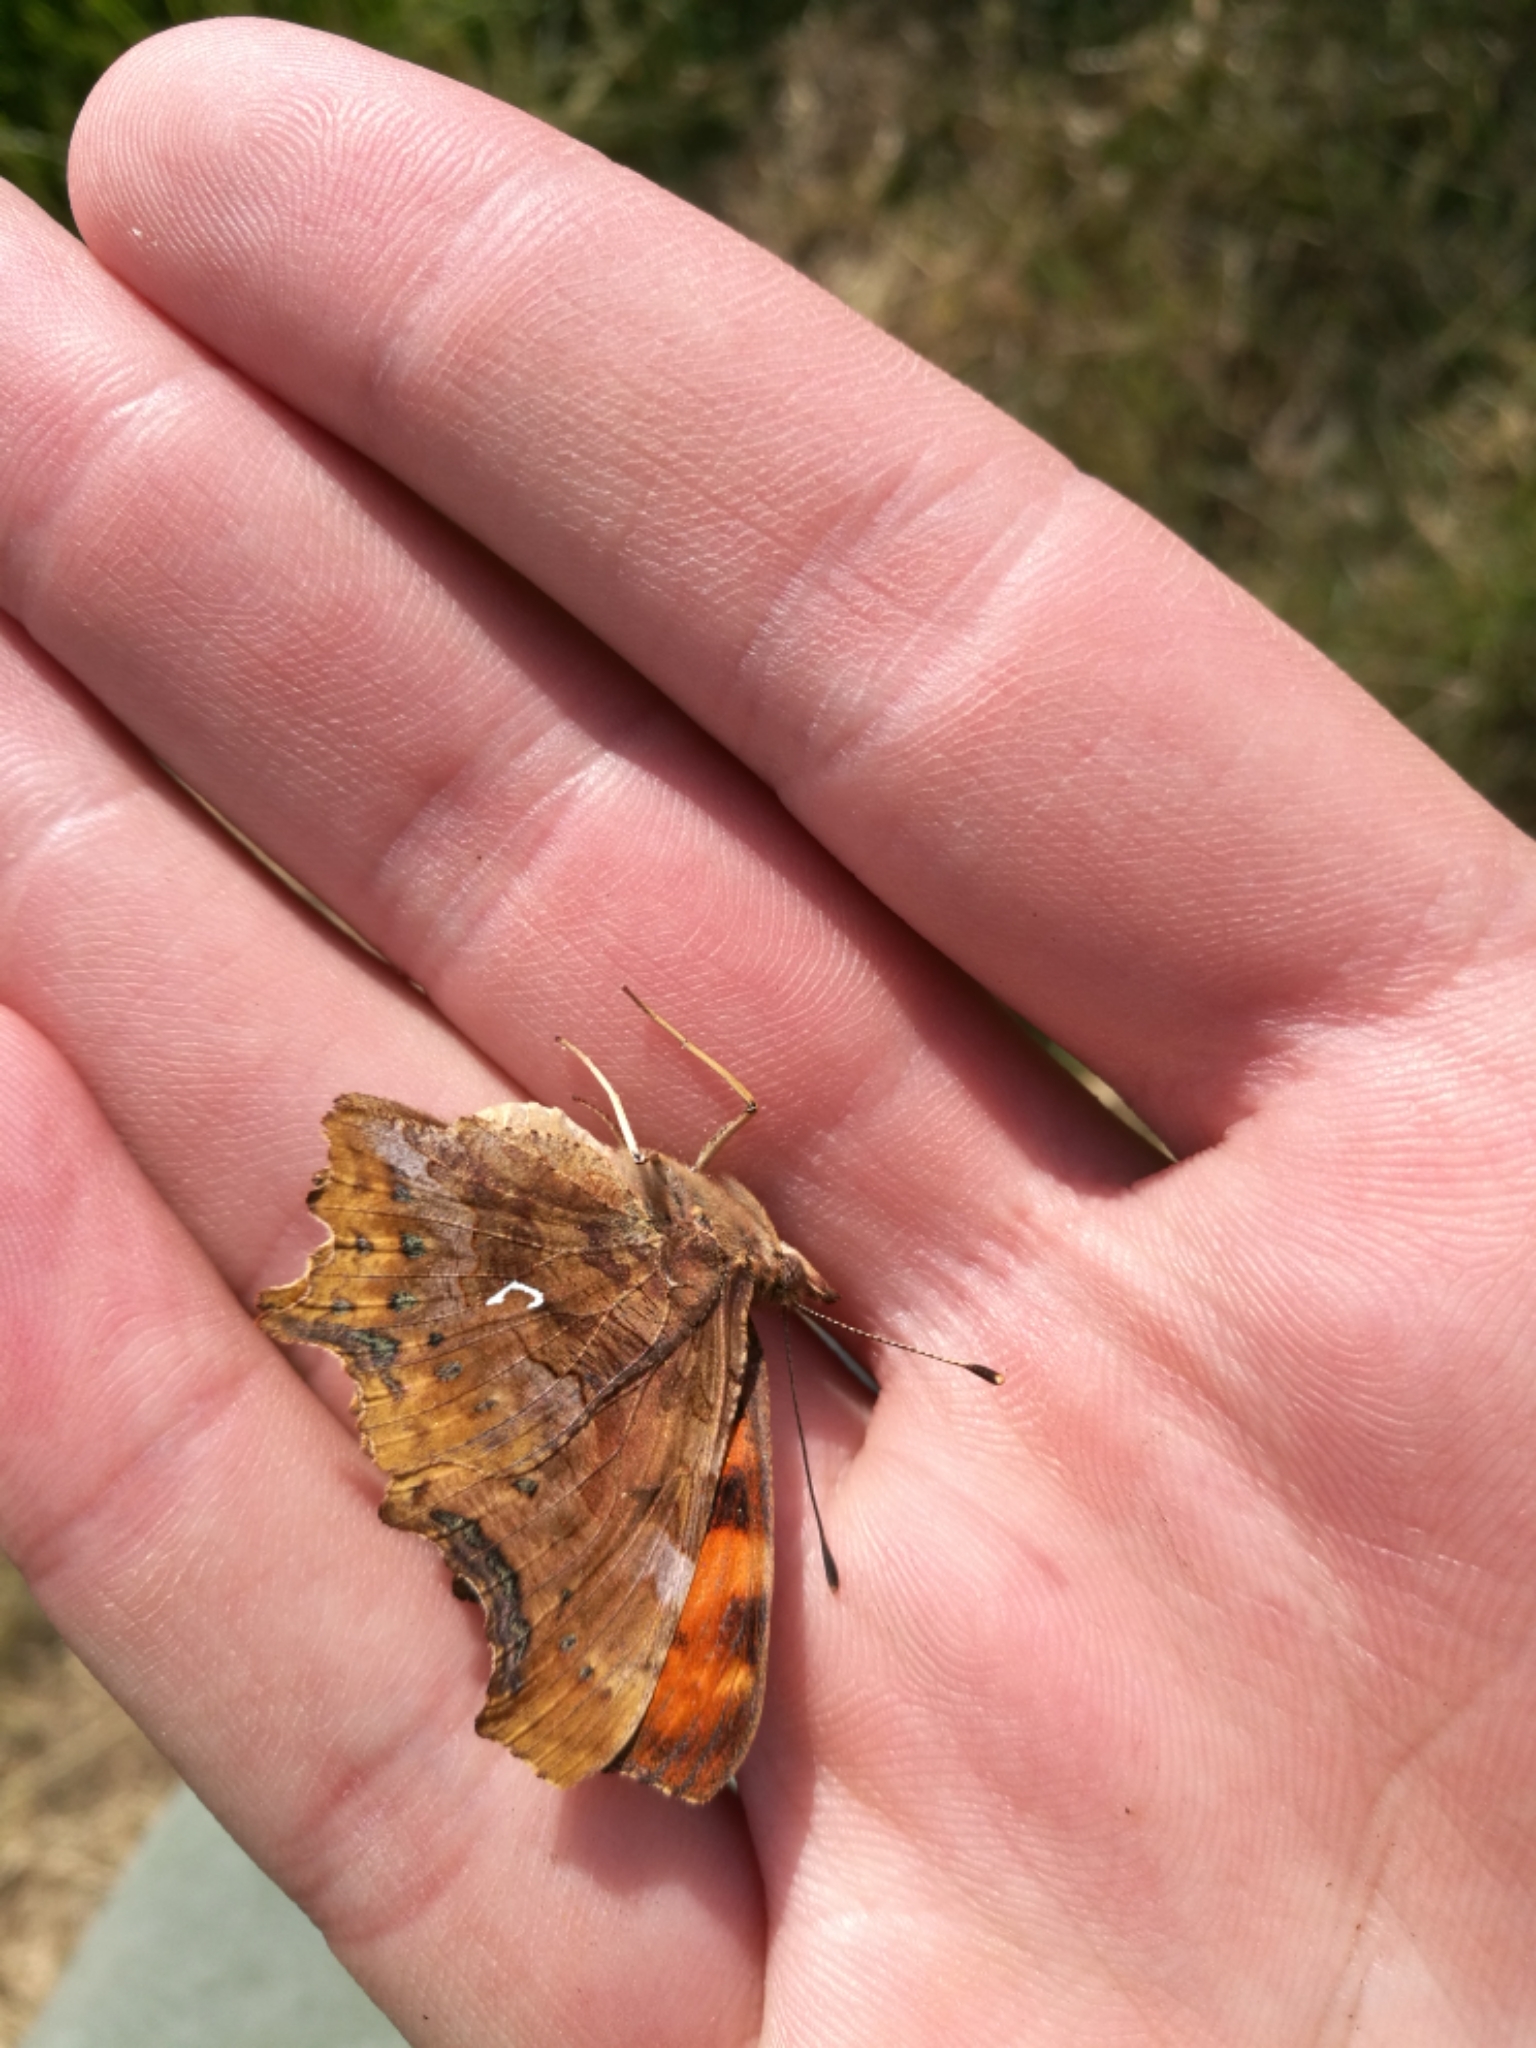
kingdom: Animalia
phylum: Arthropoda
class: Insecta
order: Lepidoptera
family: Nymphalidae
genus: Polygonia
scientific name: Polygonia c-album
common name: Comma
